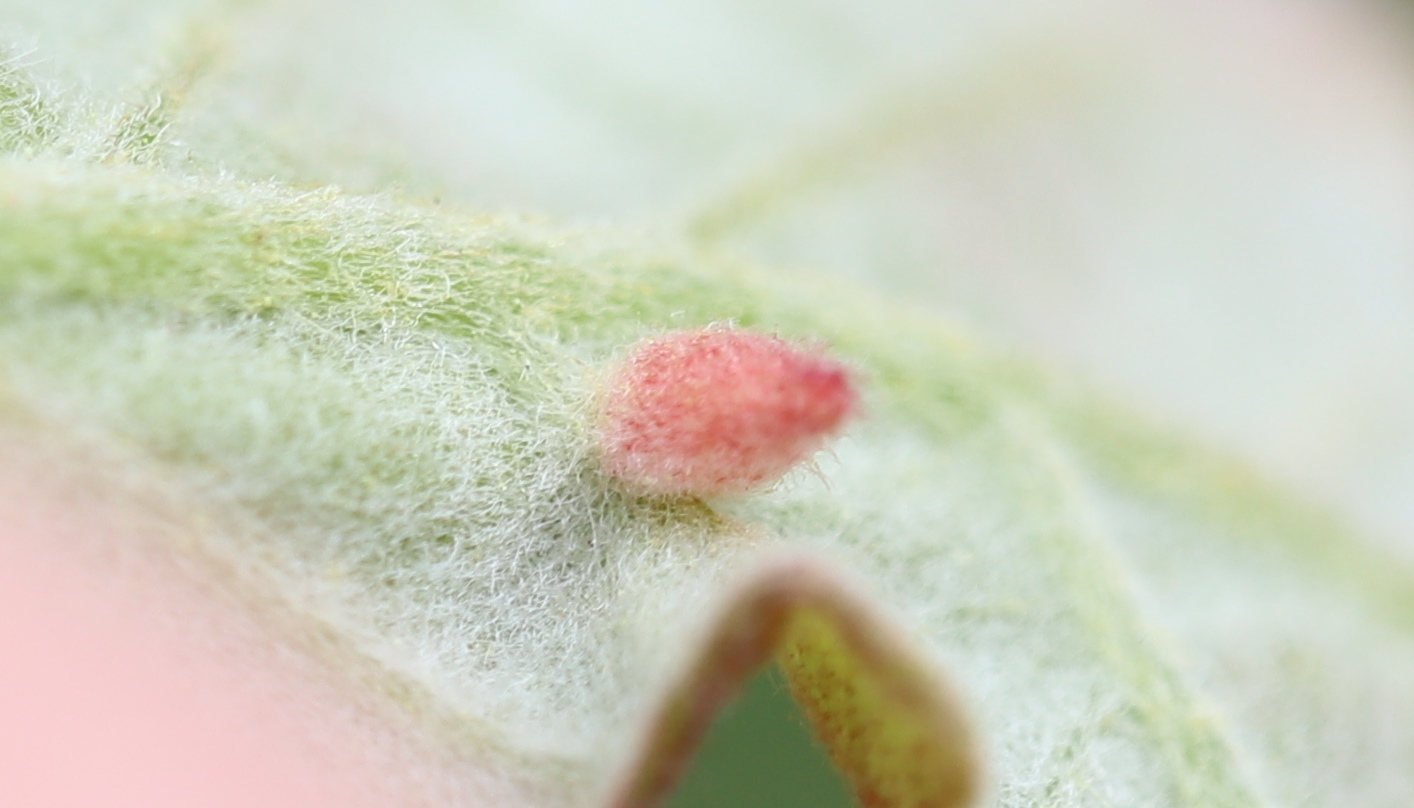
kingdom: Animalia
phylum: Arthropoda
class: Insecta
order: Hymenoptera
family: Cynipidae
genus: Andricus
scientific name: Andricus
